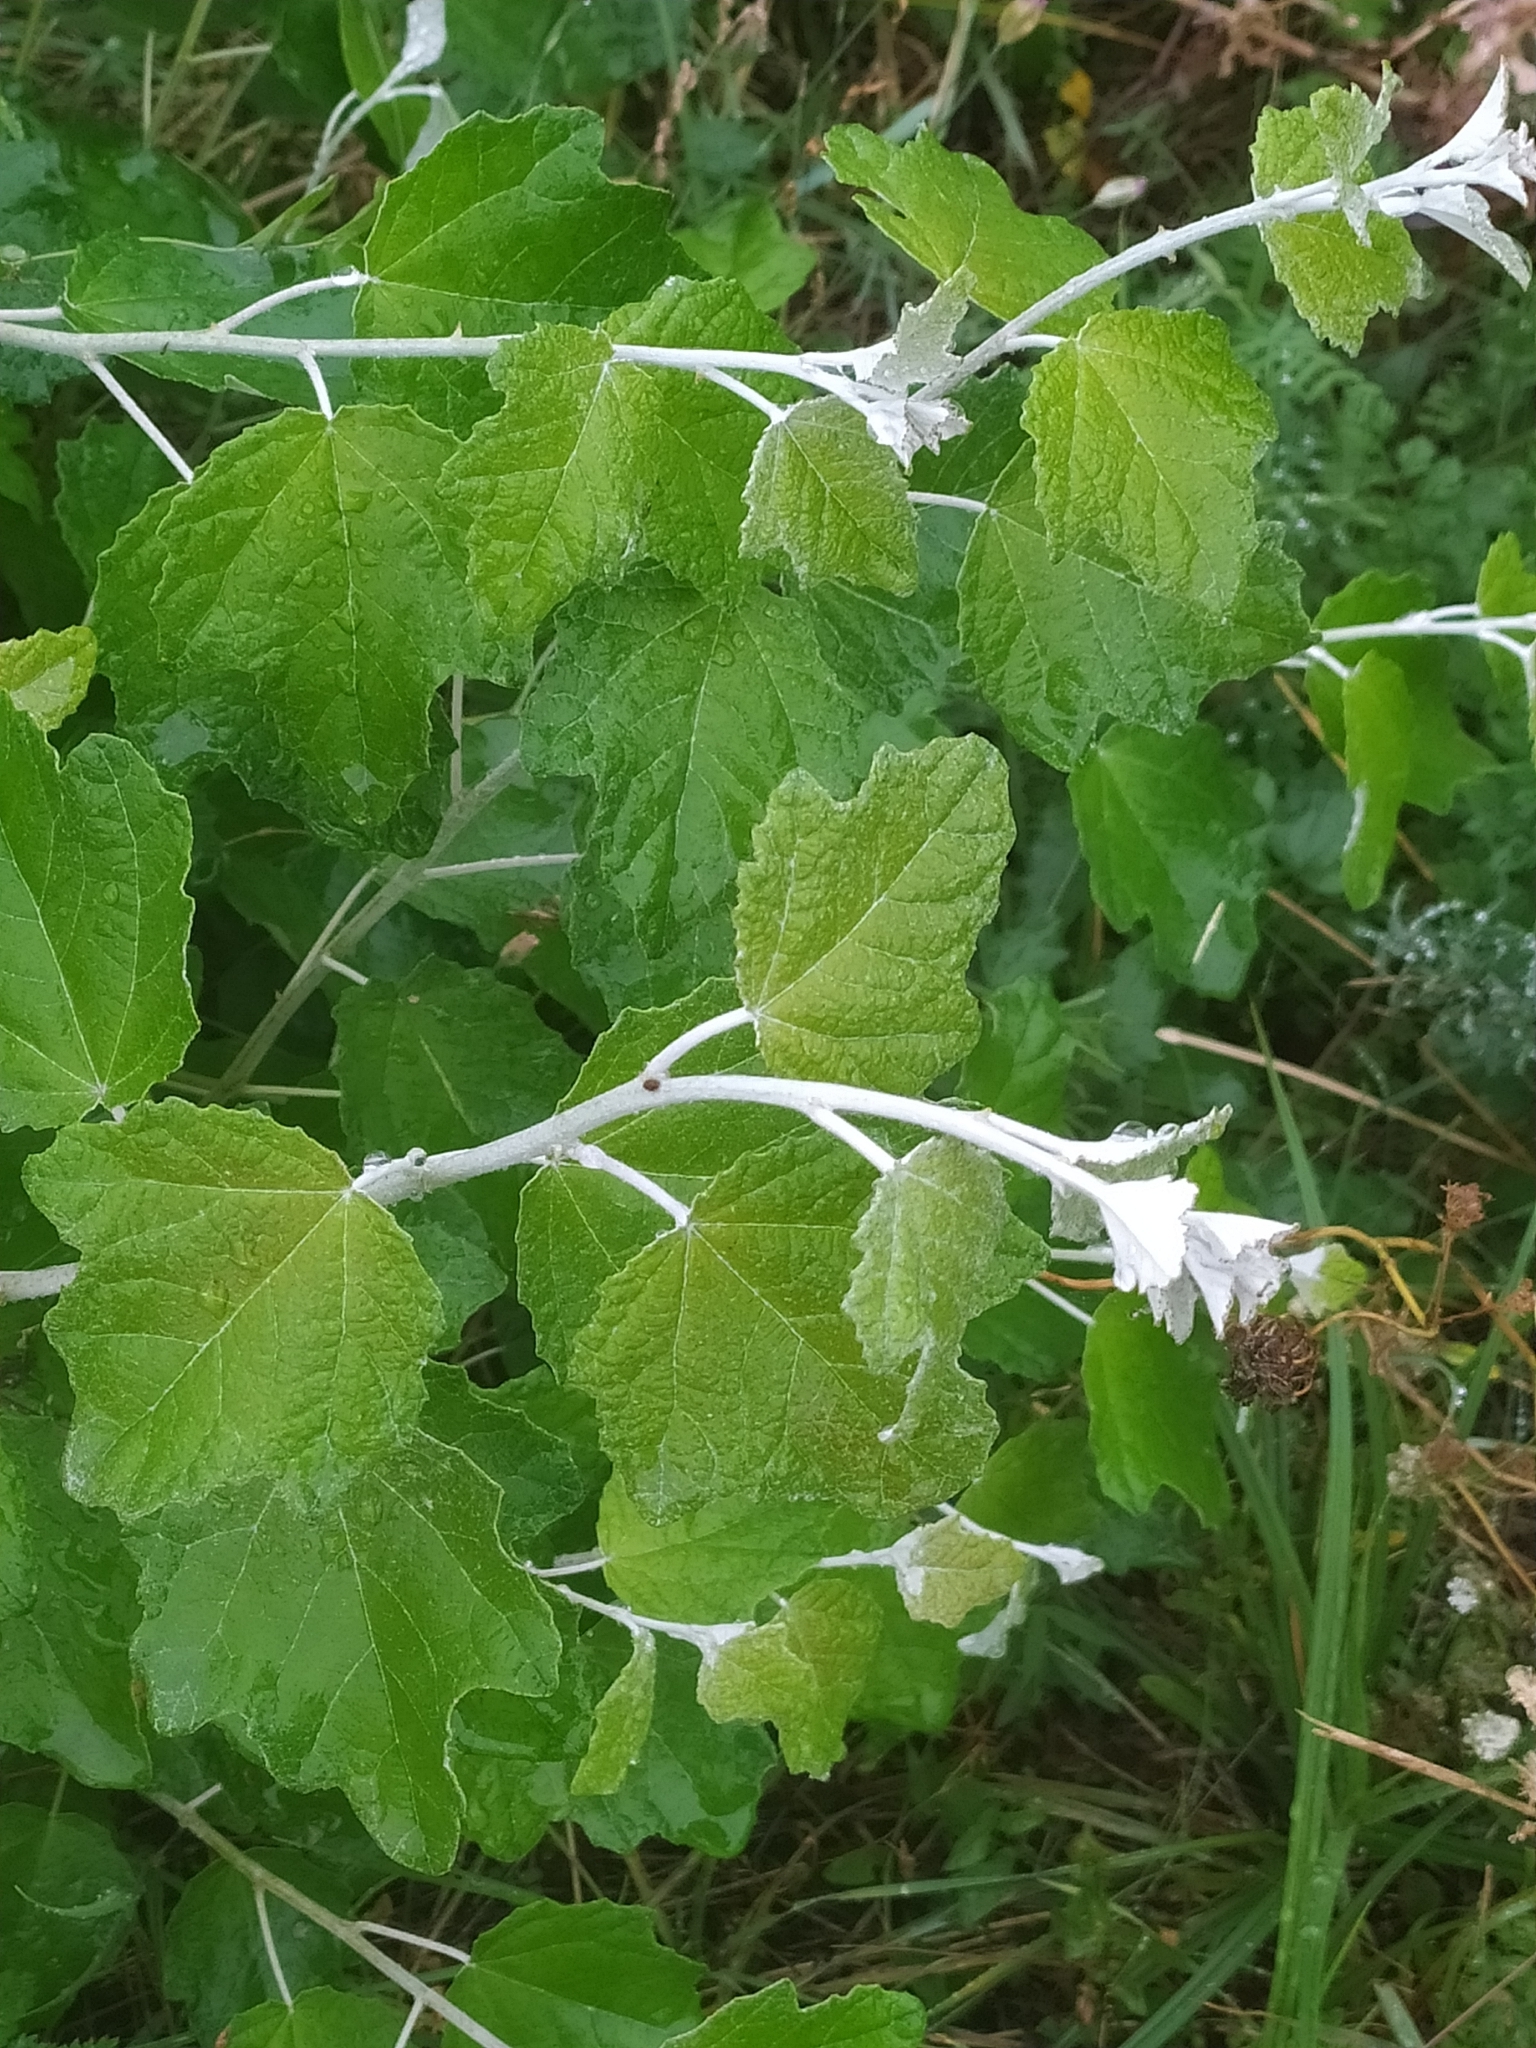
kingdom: Plantae
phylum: Tracheophyta
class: Magnoliopsida
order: Malpighiales
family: Salicaceae
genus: Populus
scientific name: Populus alba
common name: White poplar
